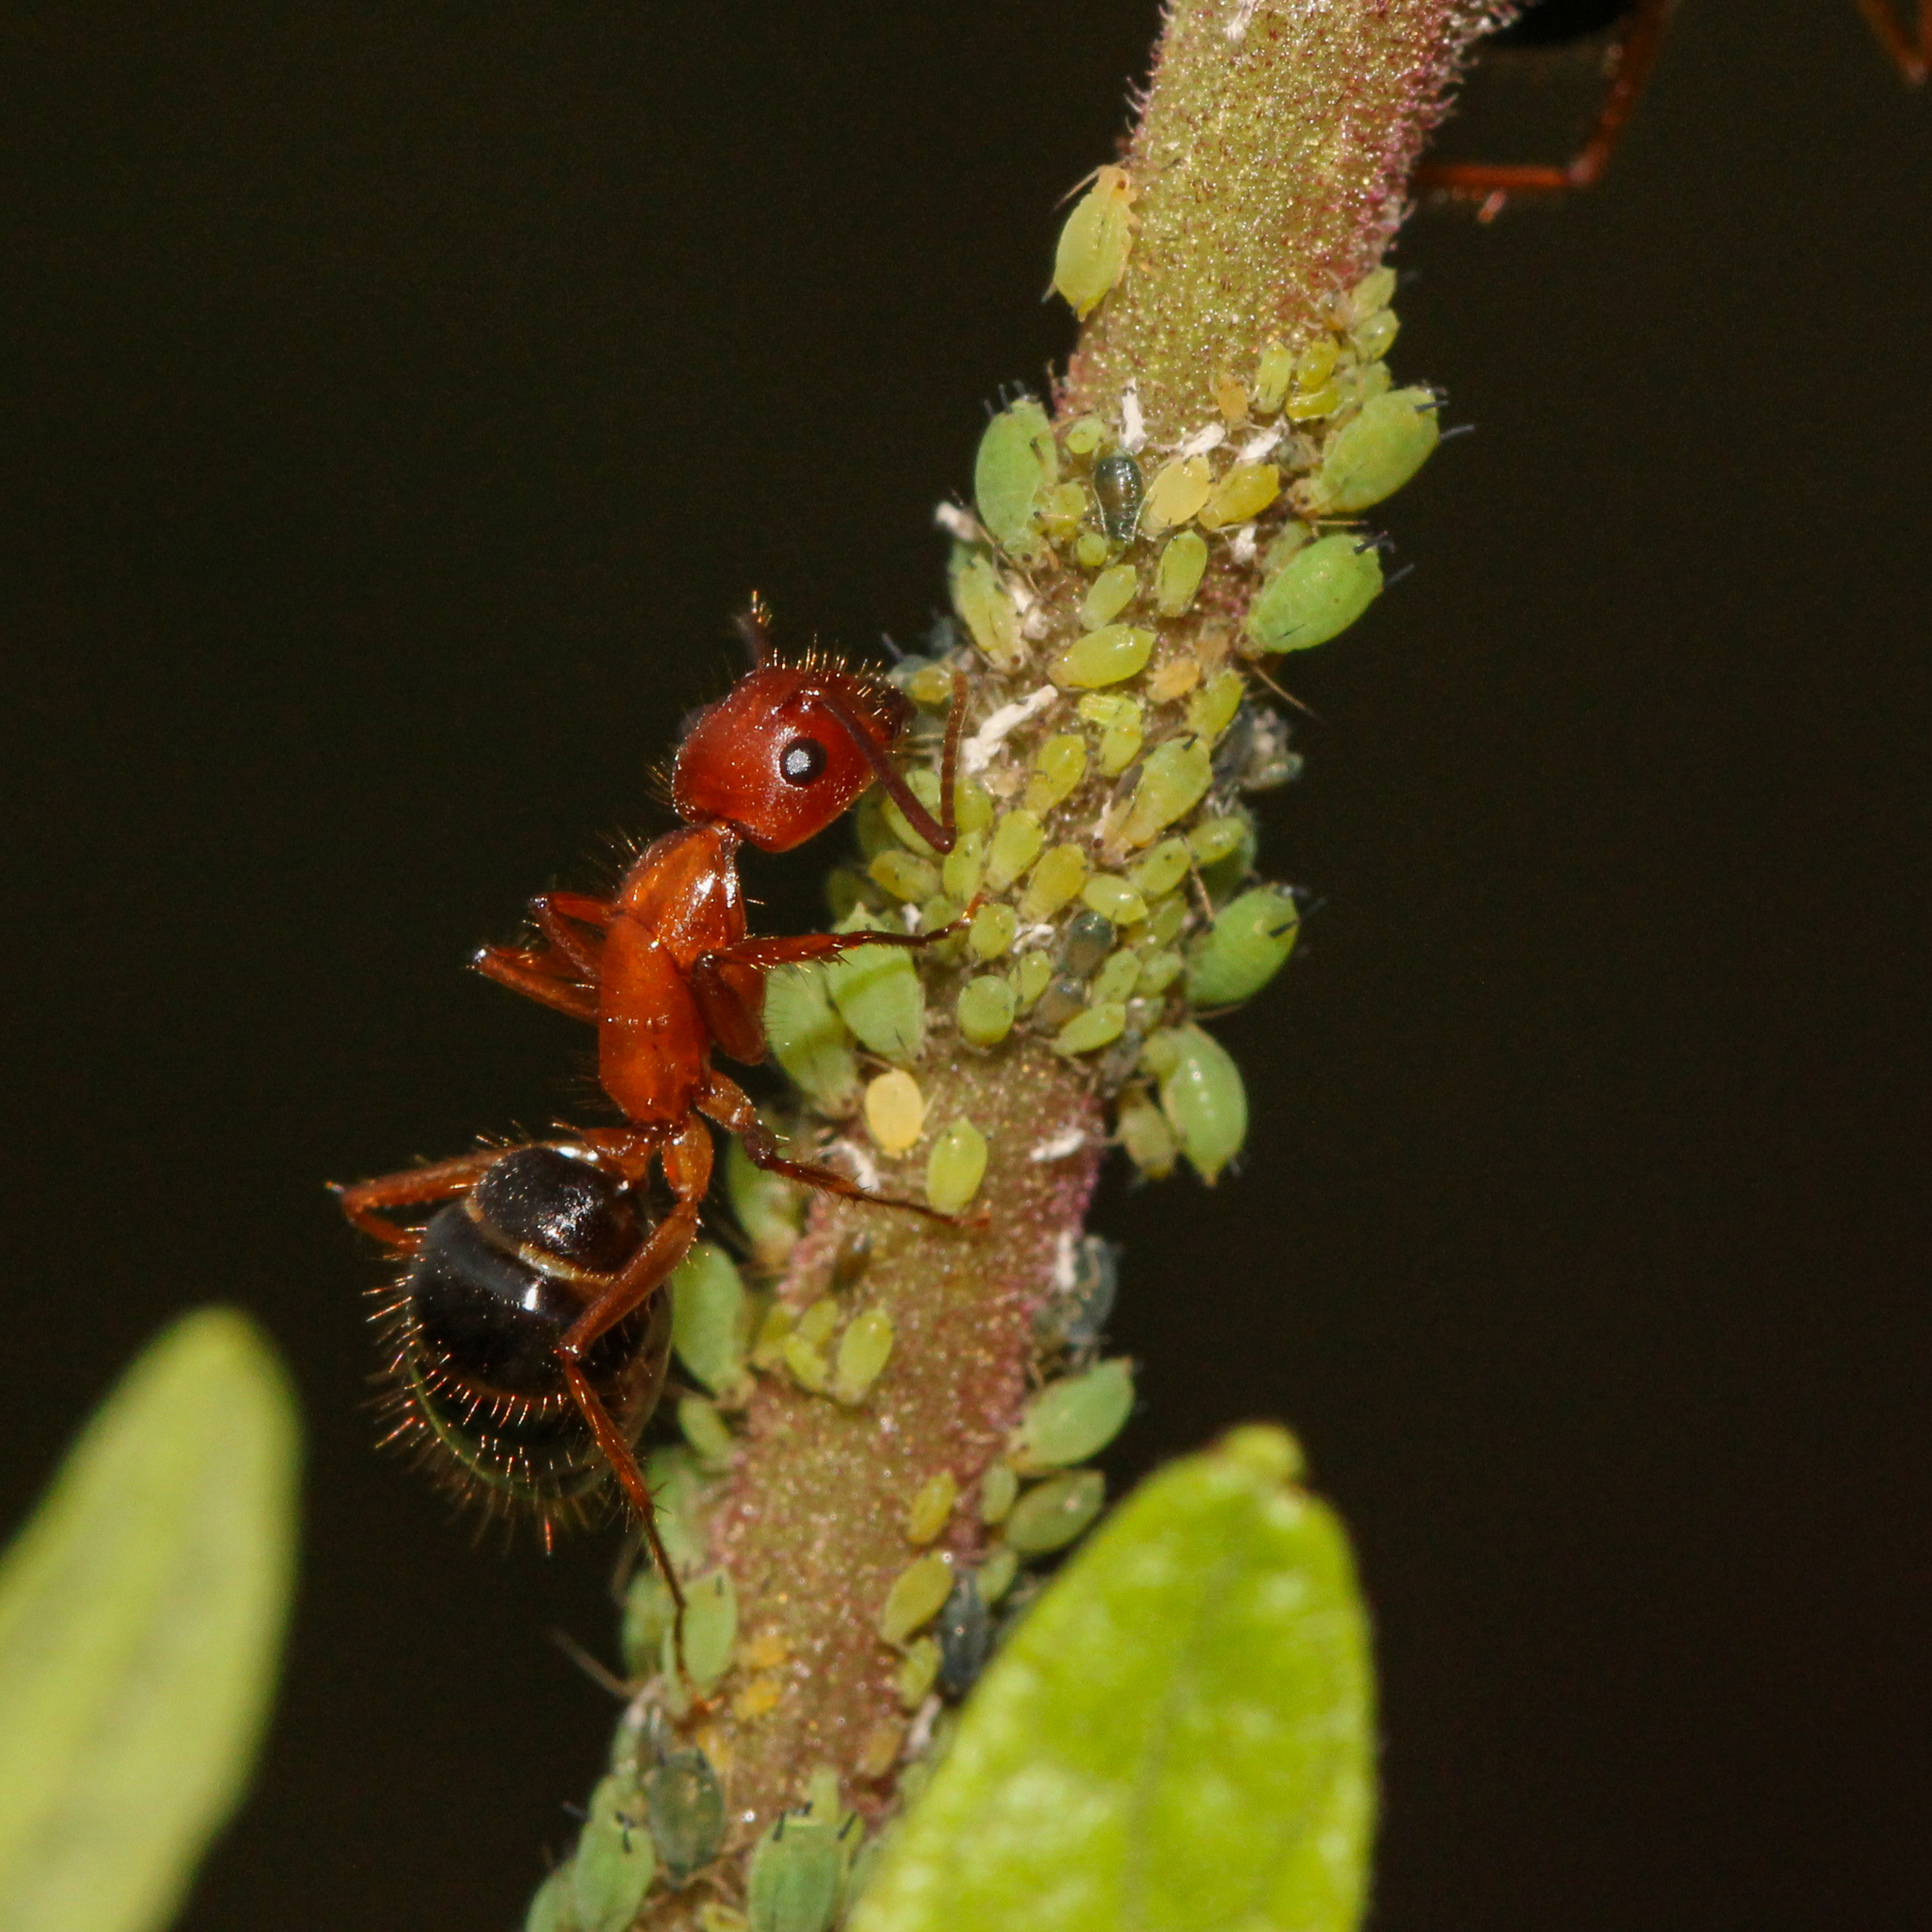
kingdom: Animalia
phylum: Arthropoda
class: Insecta
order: Hymenoptera
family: Formicidae
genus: Camponotus
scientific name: Camponotus floridanus
